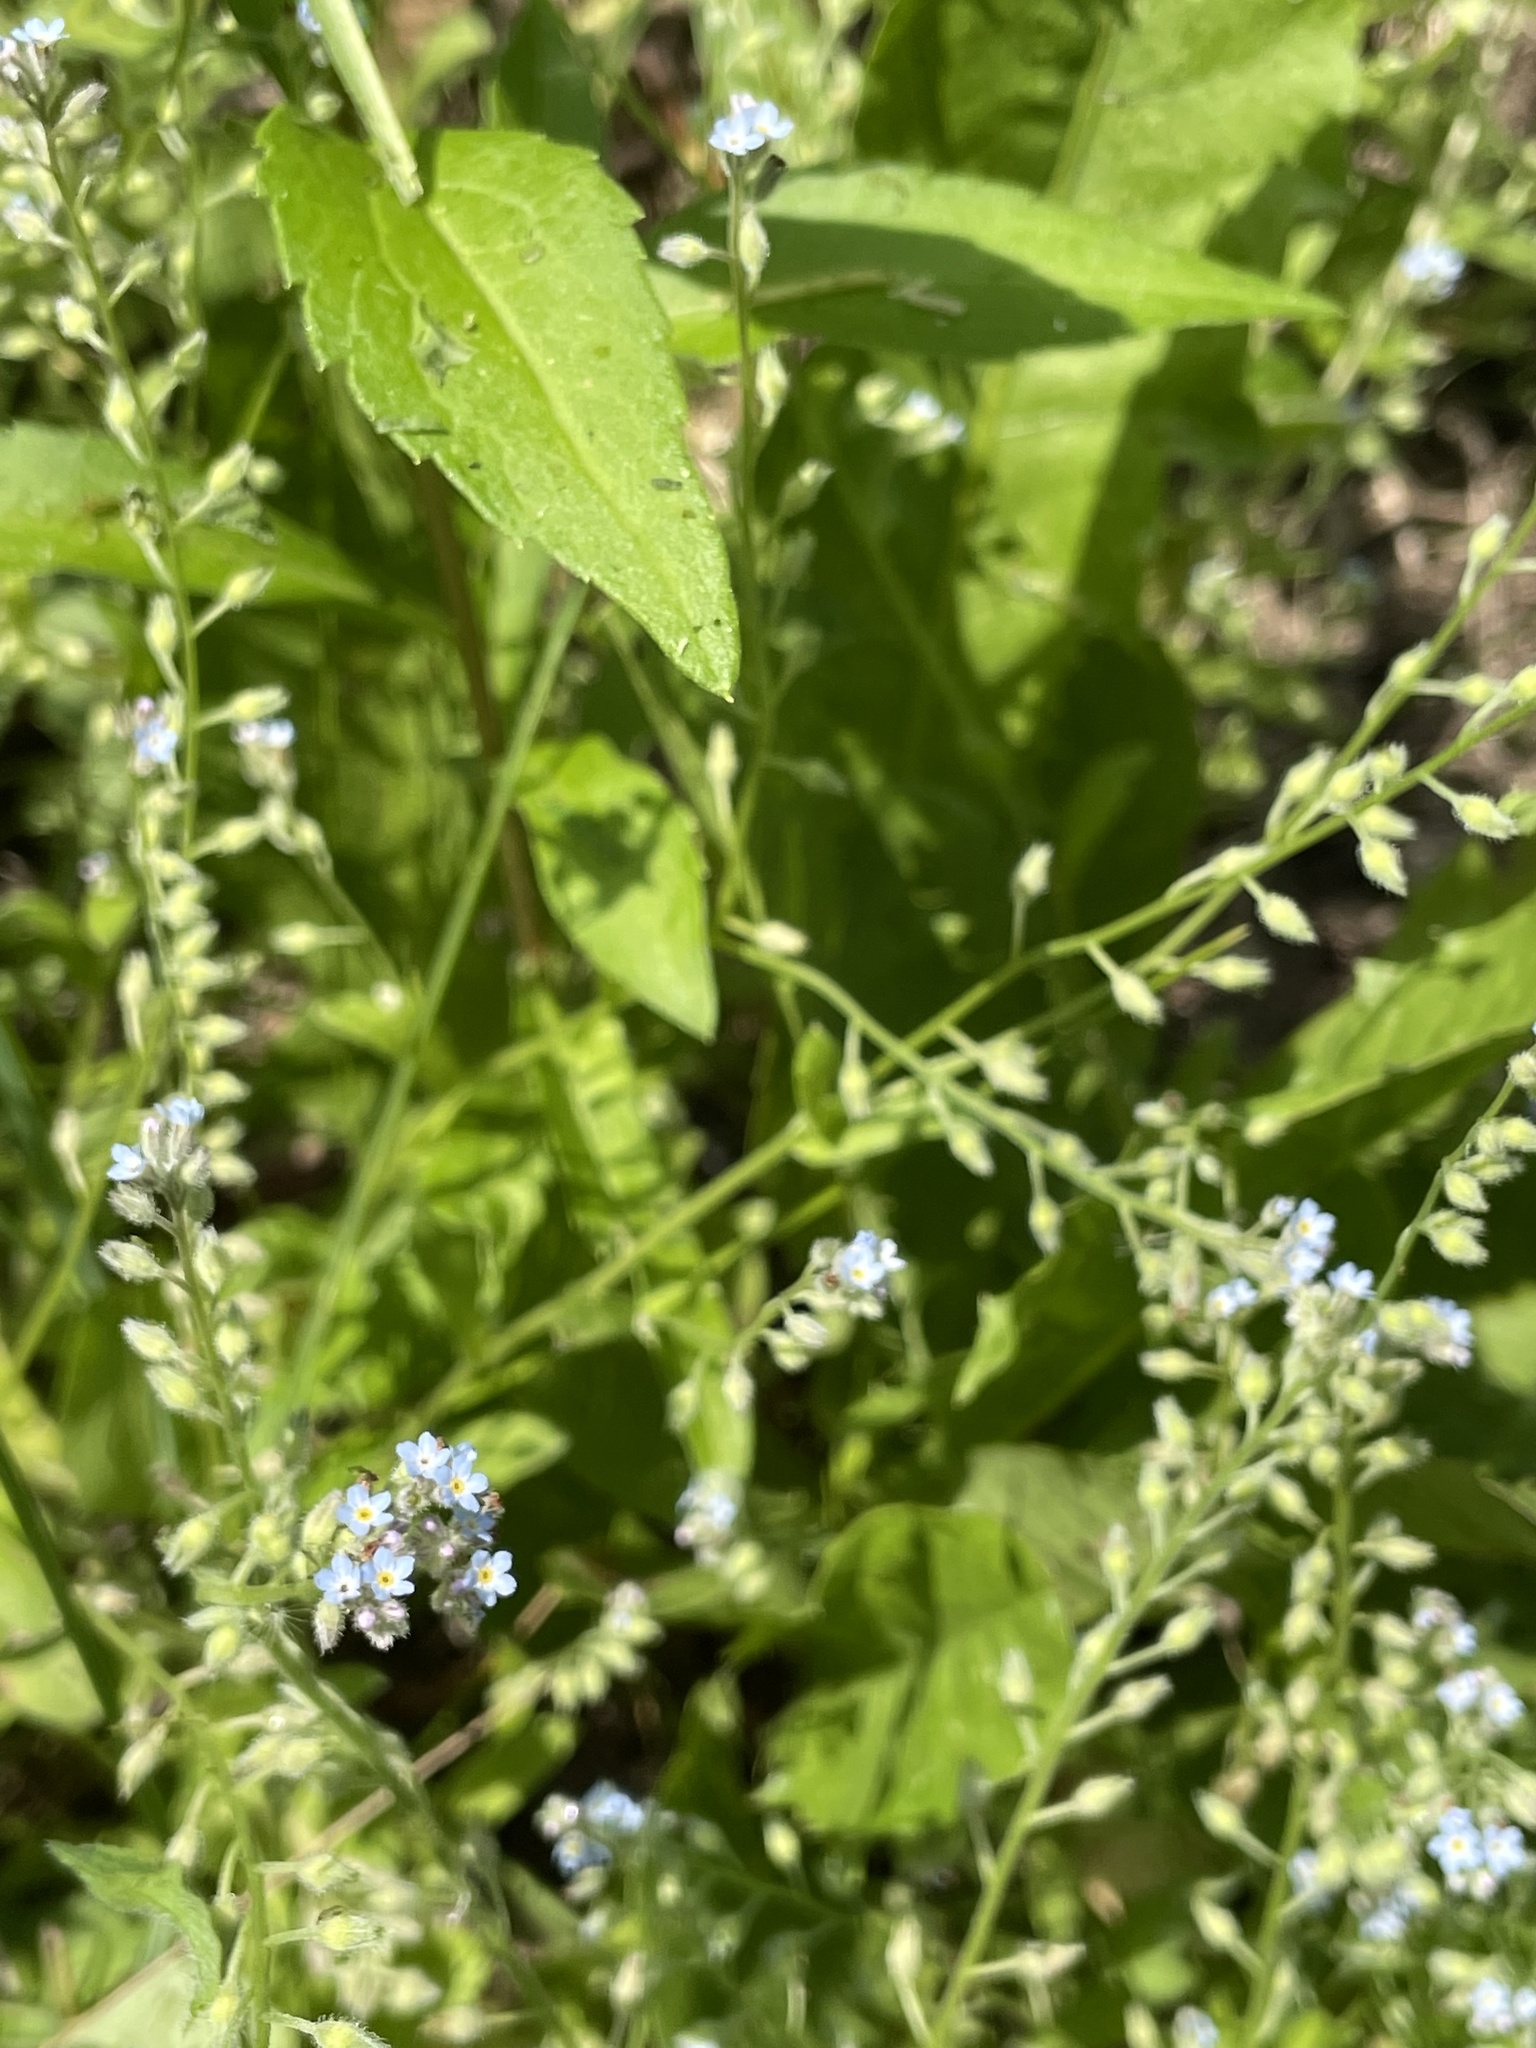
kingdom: Plantae
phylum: Tracheophyta
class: Magnoliopsida
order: Boraginales
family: Boraginaceae
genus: Myosotis
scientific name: Myosotis arvensis
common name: Field forget-me-not
